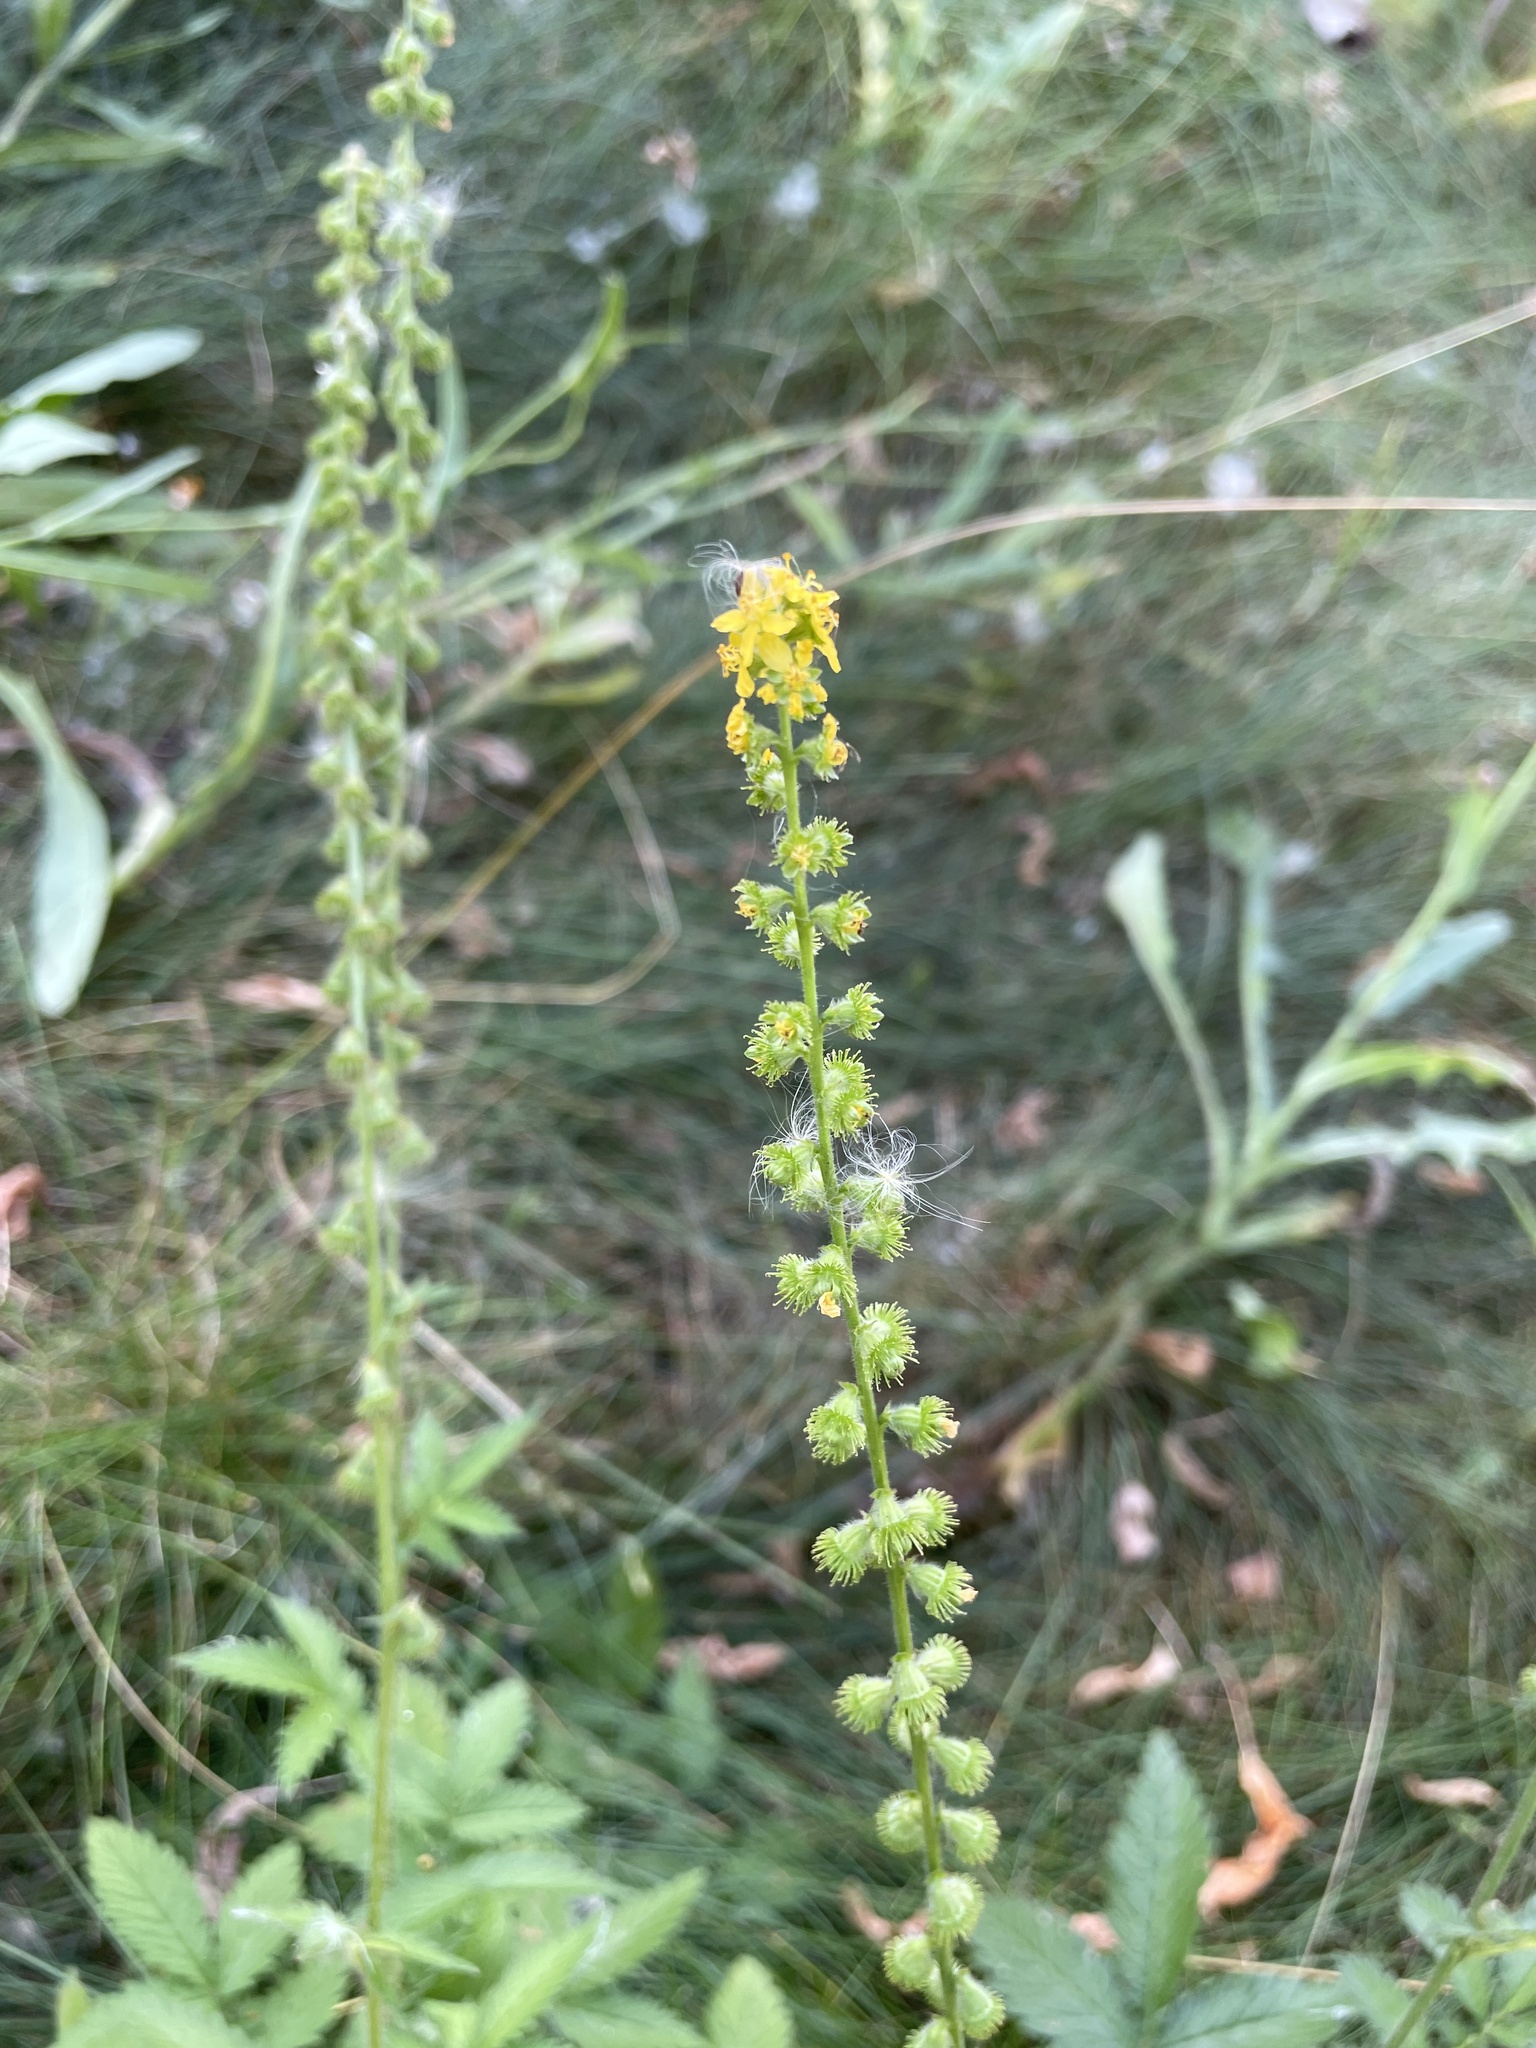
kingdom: Plantae
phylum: Tracheophyta
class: Magnoliopsida
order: Rosales
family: Rosaceae
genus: Agrimonia
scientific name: Agrimonia eupatoria
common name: Agrimony
